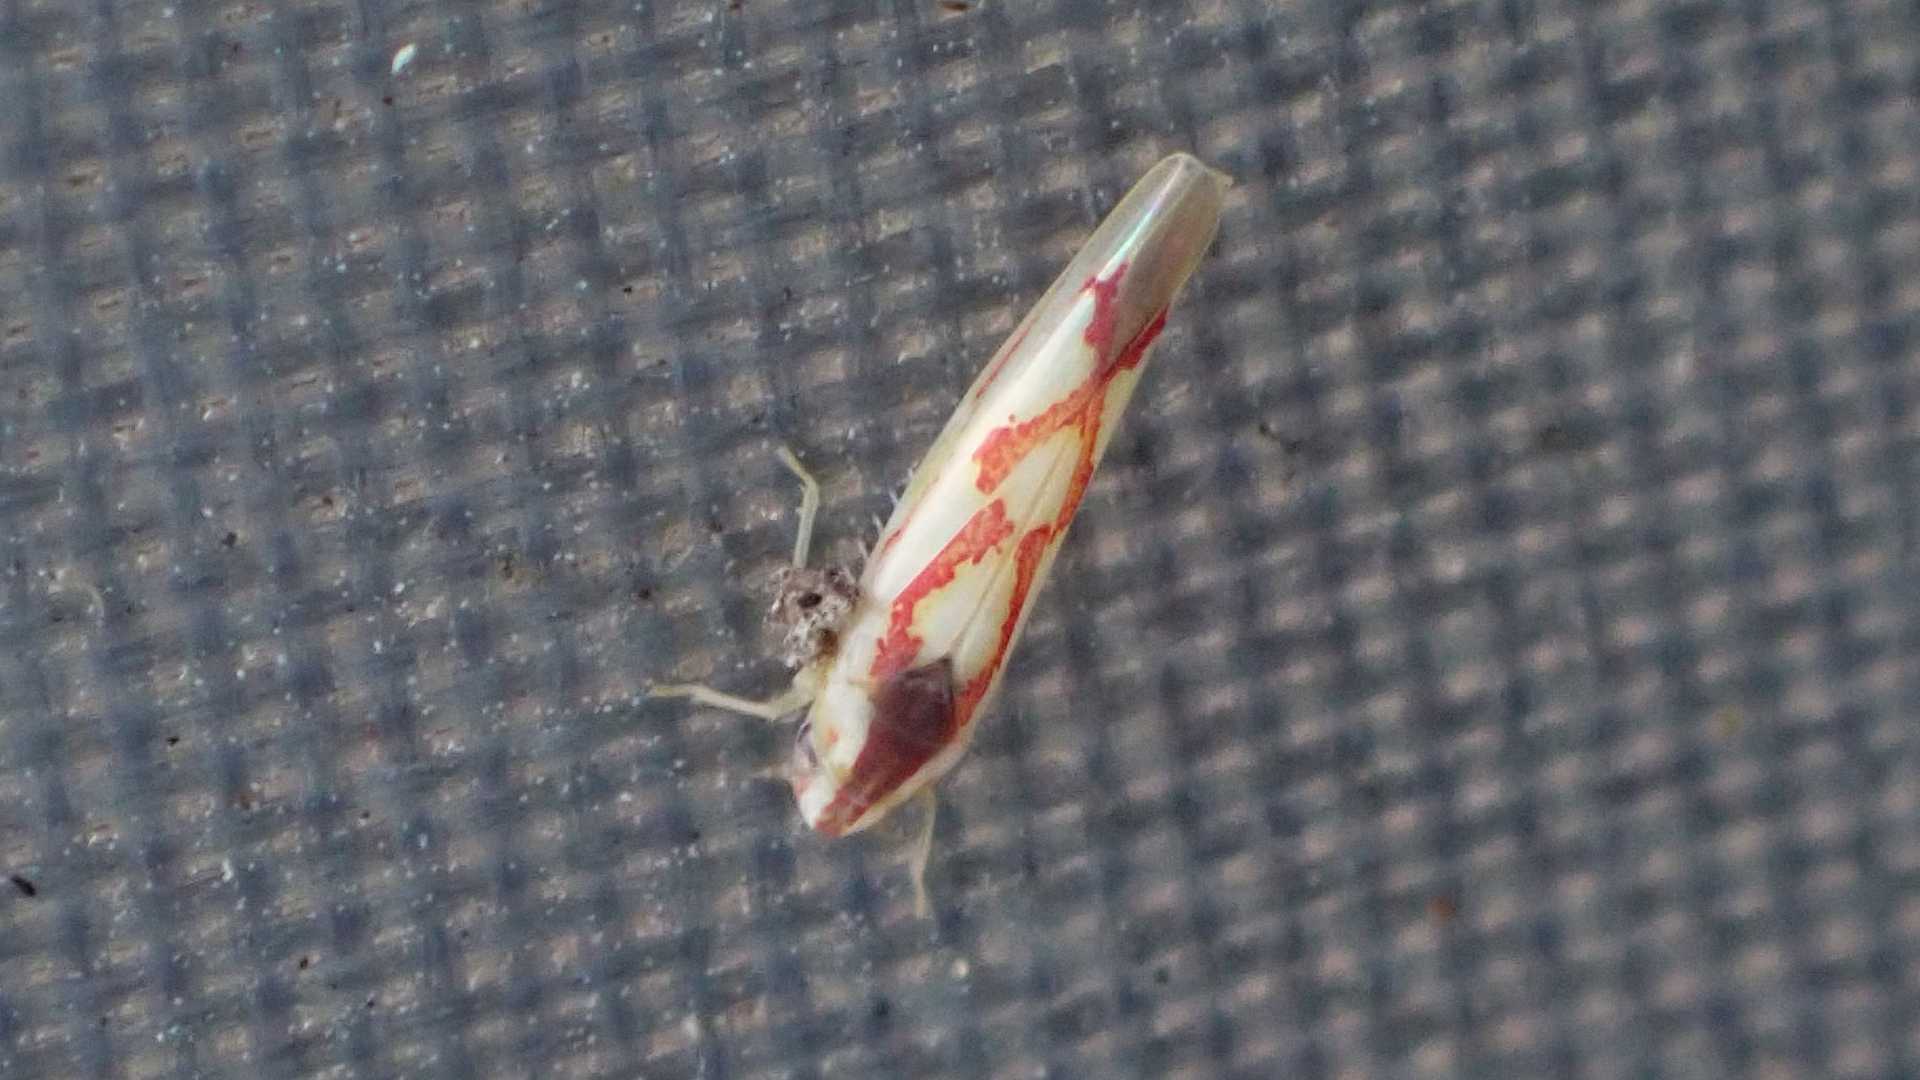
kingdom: Animalia
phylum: Arthropoda
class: Insecta
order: Hemiptera
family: Cicadellidae
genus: Zygina
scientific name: Zygina flammigera
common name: Leafhopper
